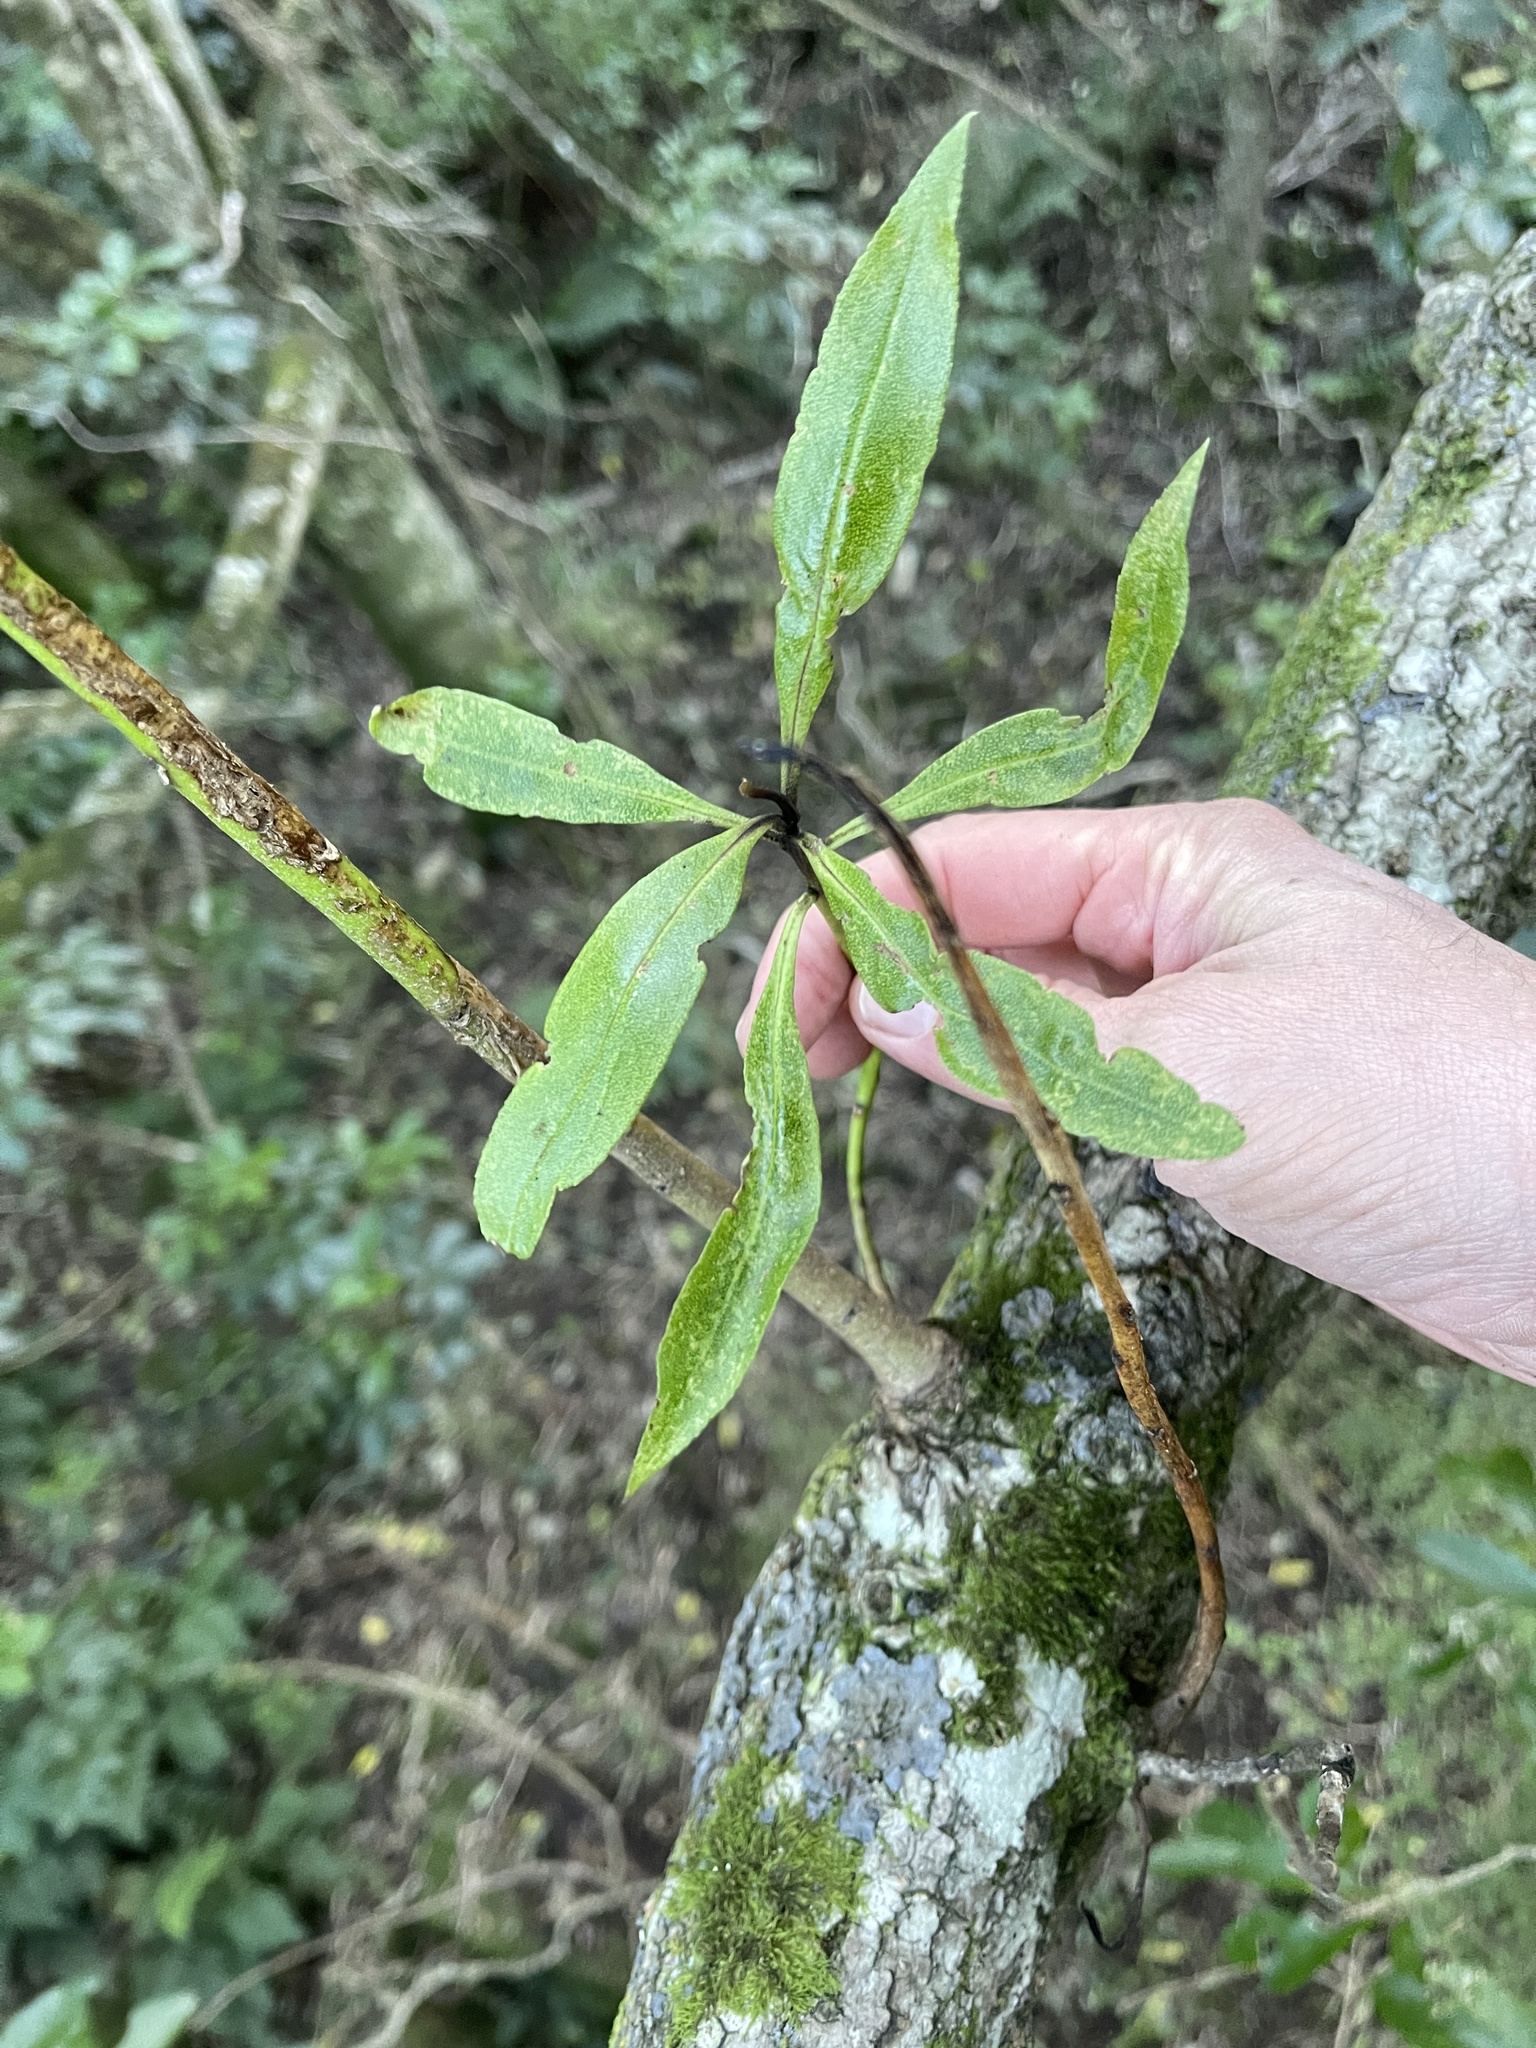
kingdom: Plantae
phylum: Tracheophyta
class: Magnoliopsida
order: Lamiales
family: Scrophulariaceae
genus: Myoporum
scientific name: Myoporum laetum
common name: Ngaio tree
